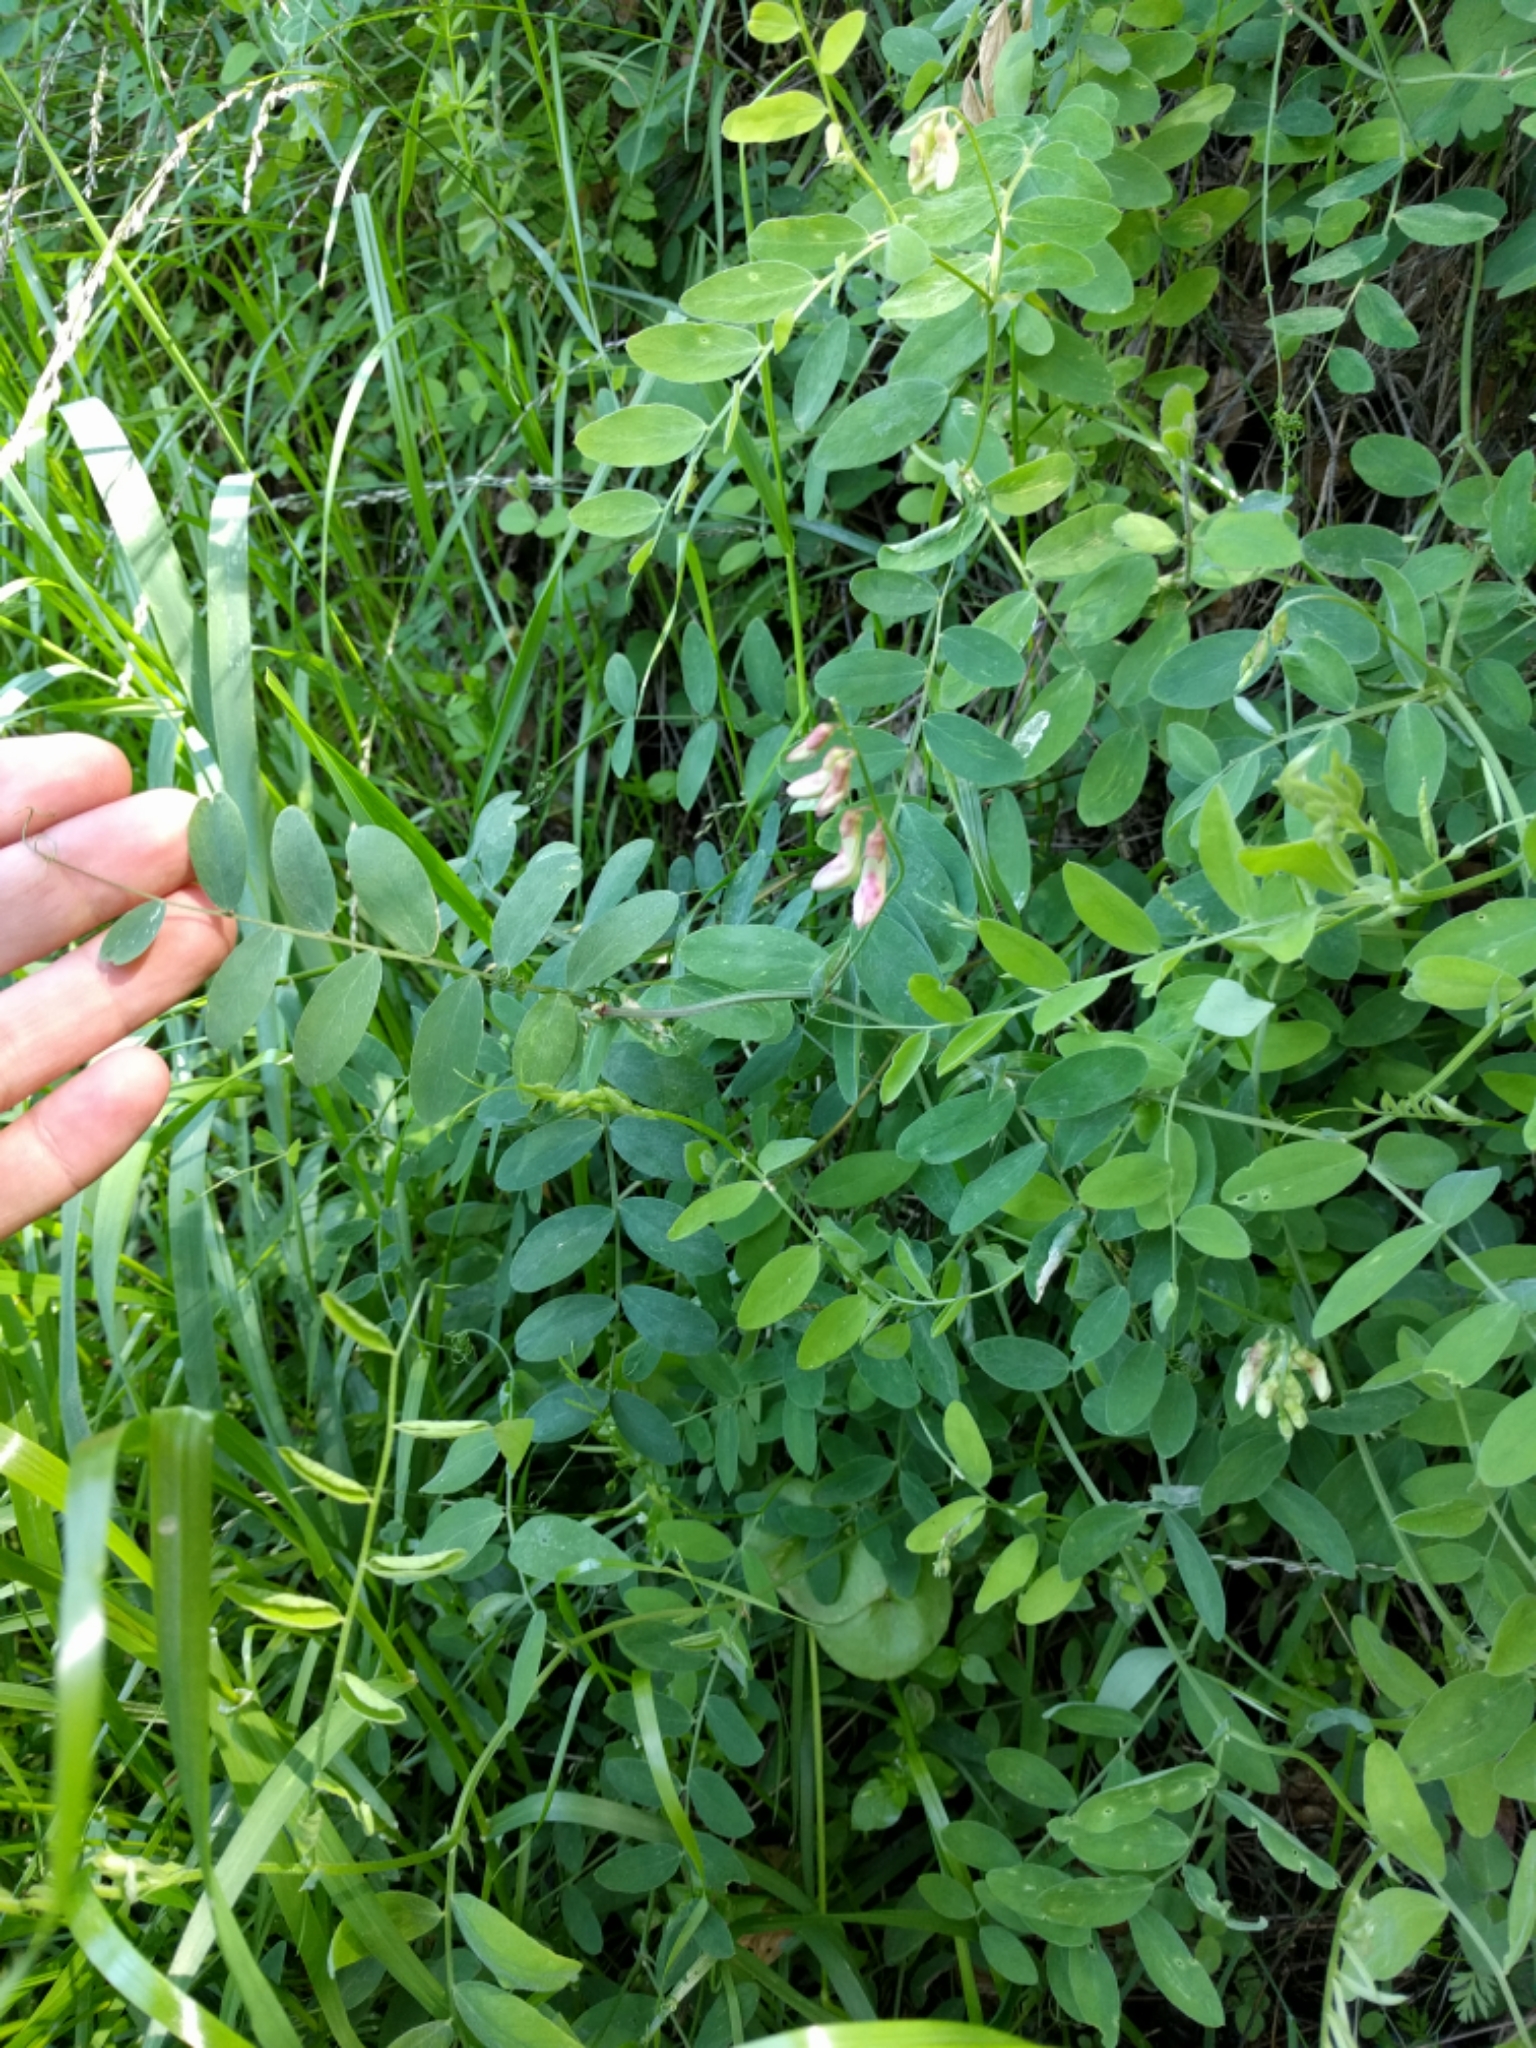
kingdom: Plantae
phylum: Tracheophyta
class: Magnoliopsida
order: Fabales
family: Fabaceae
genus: Lathyrus
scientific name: Lathyrus vestitus
